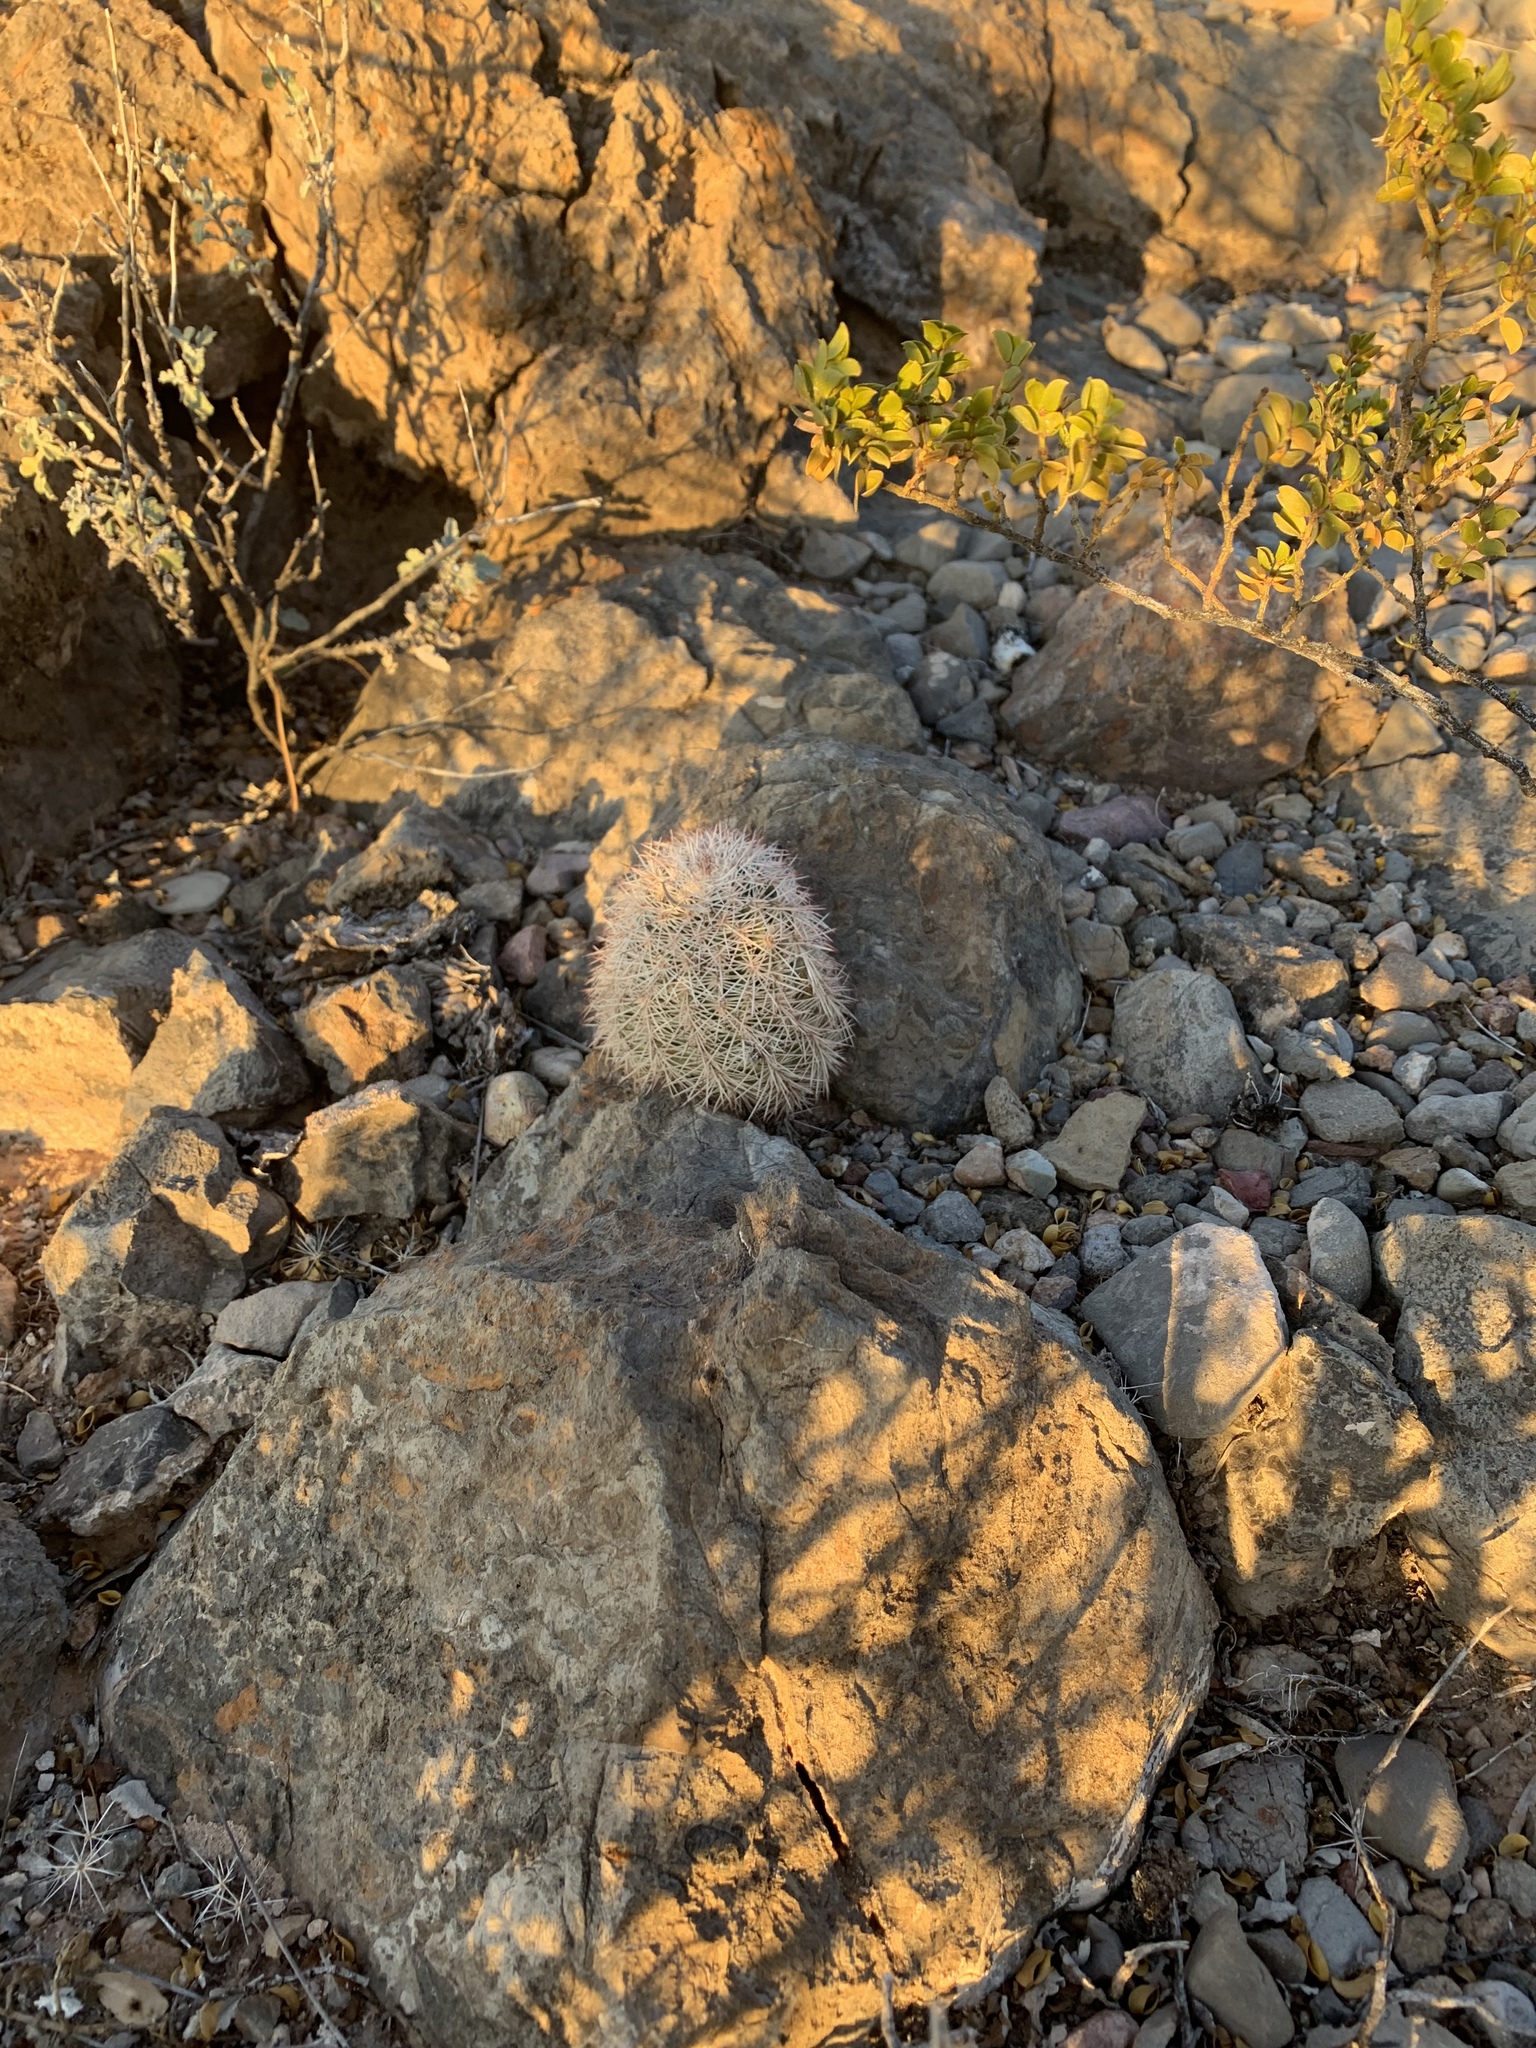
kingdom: Plantae
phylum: Tracheophyta
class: Magnoliopsida
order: Caryophyllales
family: Cactaceae
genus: Echinocereus
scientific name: Echinocereus dasyacanthus
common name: Spiny hedgehog cactus
